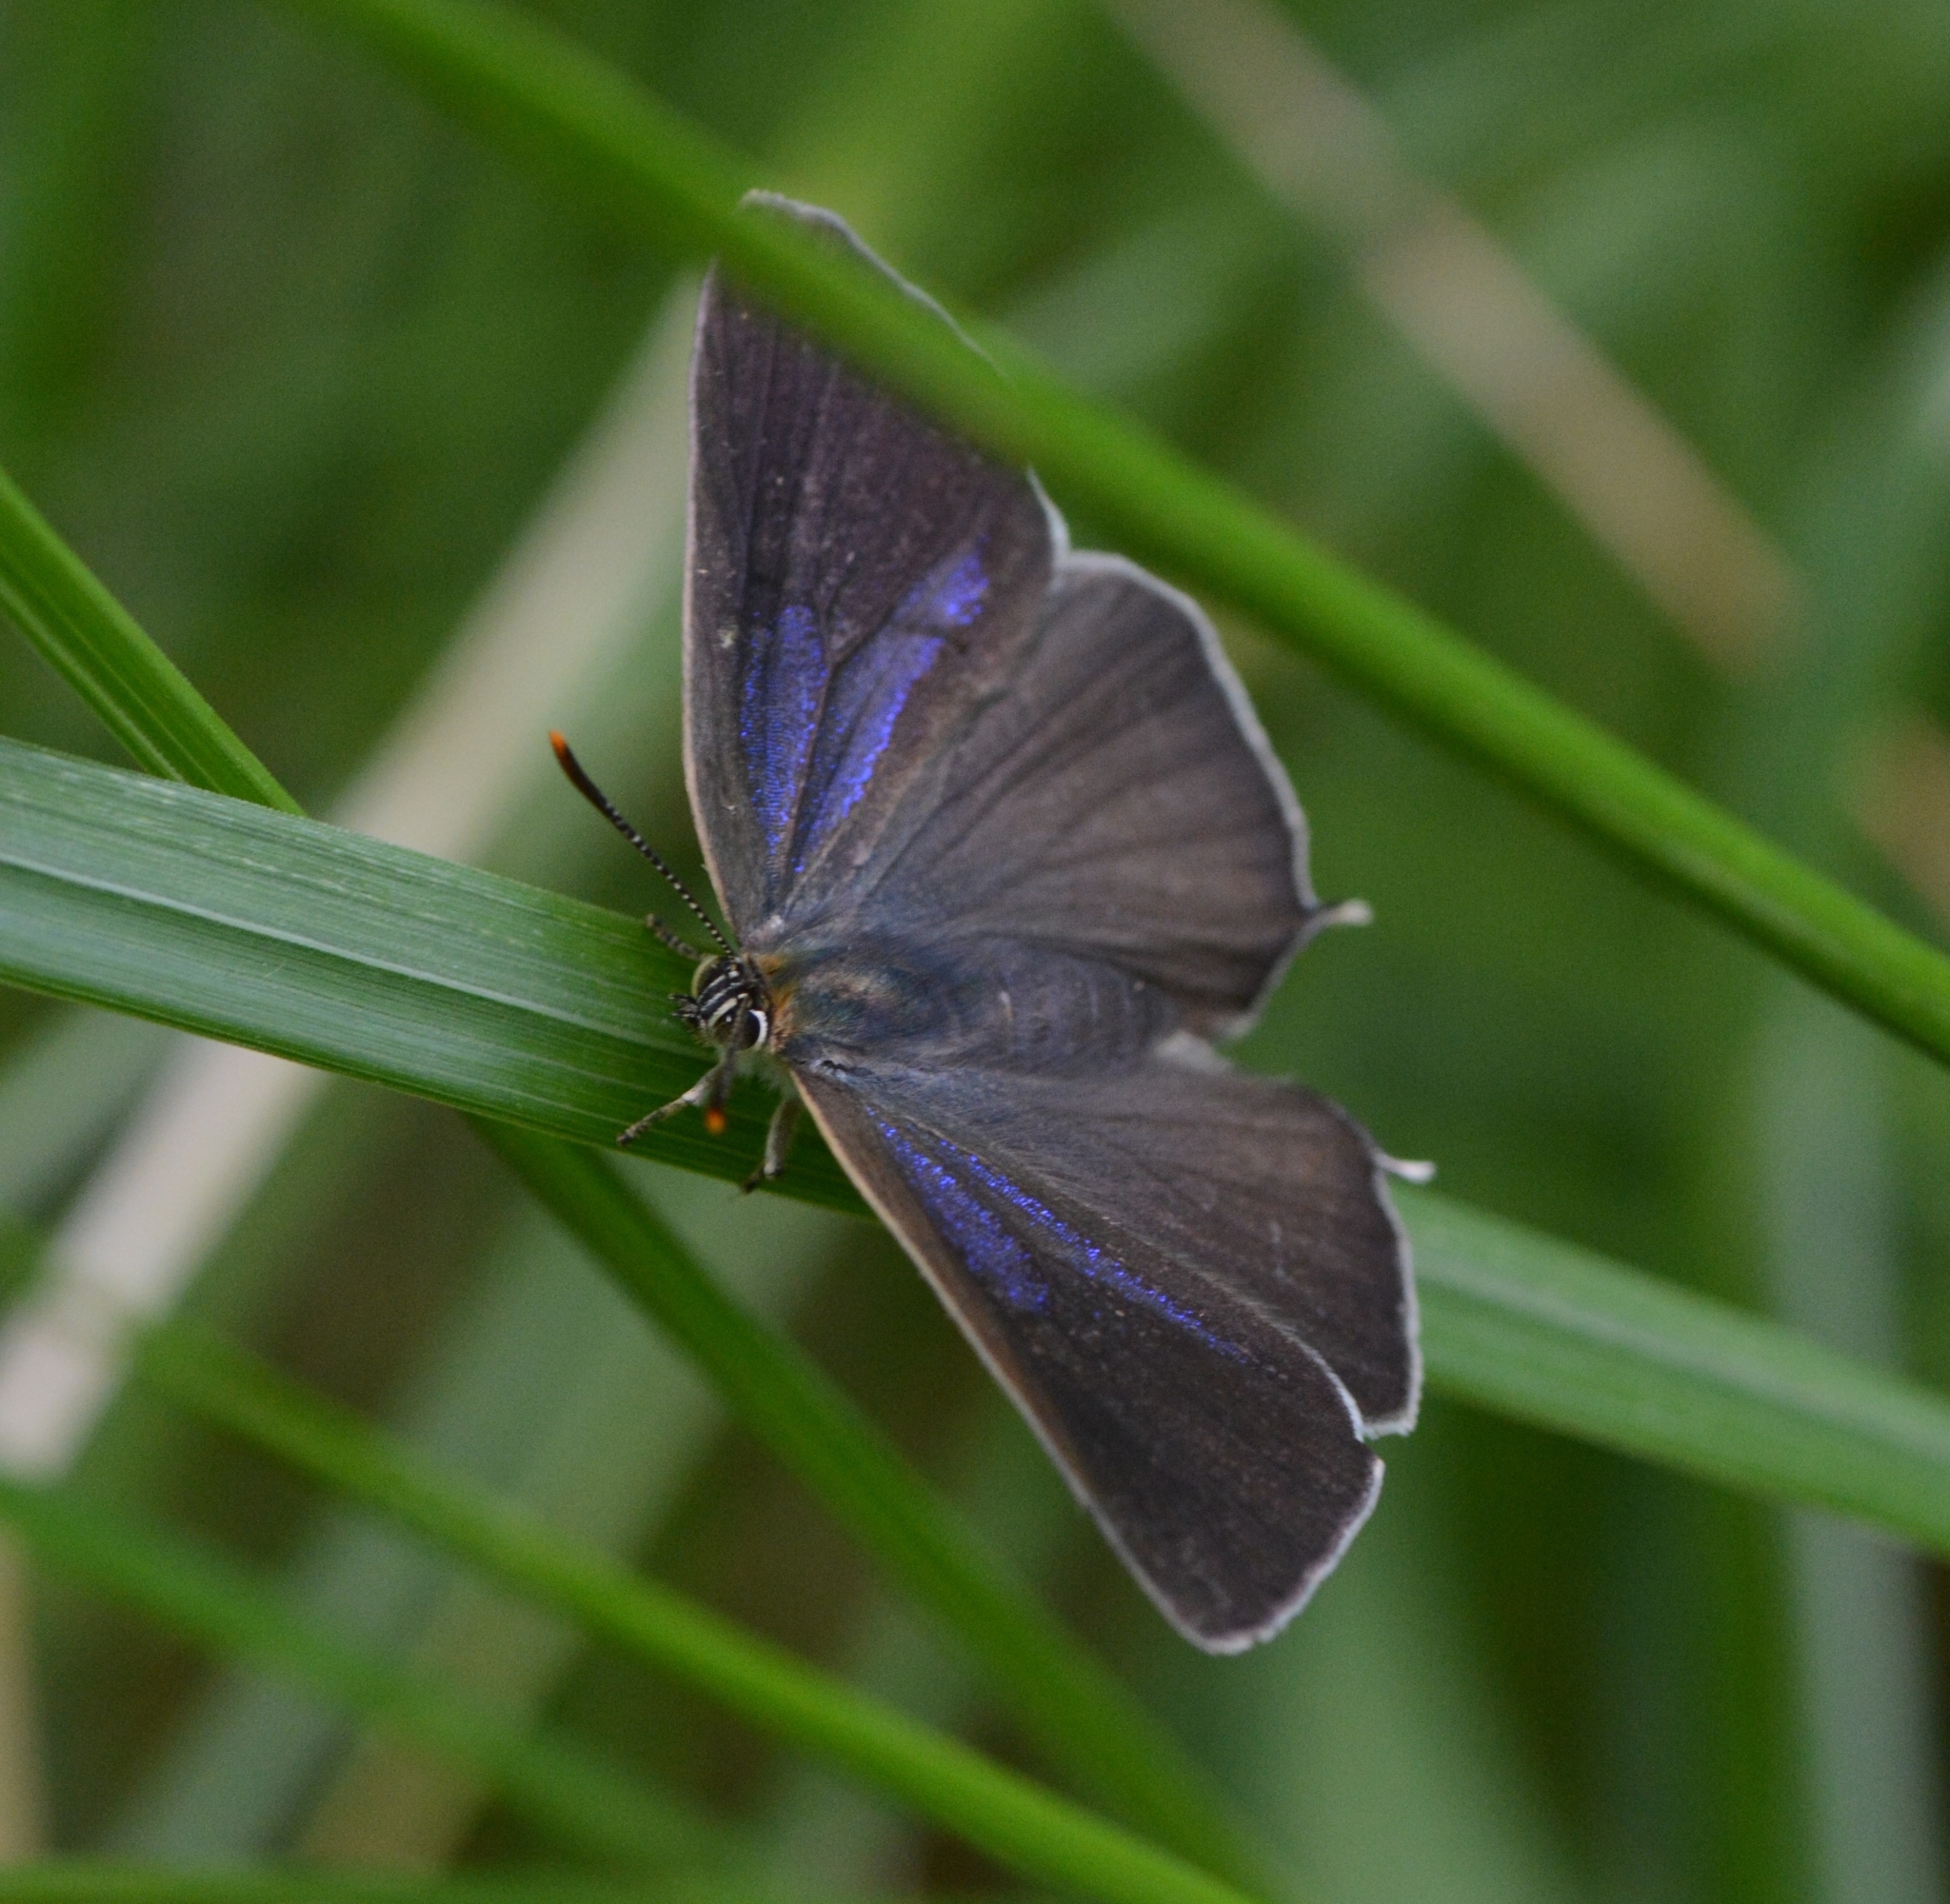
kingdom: Animalia
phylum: Arthropoda
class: Insecta
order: Lepidoptera
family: Lycaenidae
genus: Quercusia
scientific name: Quercusia quercus
